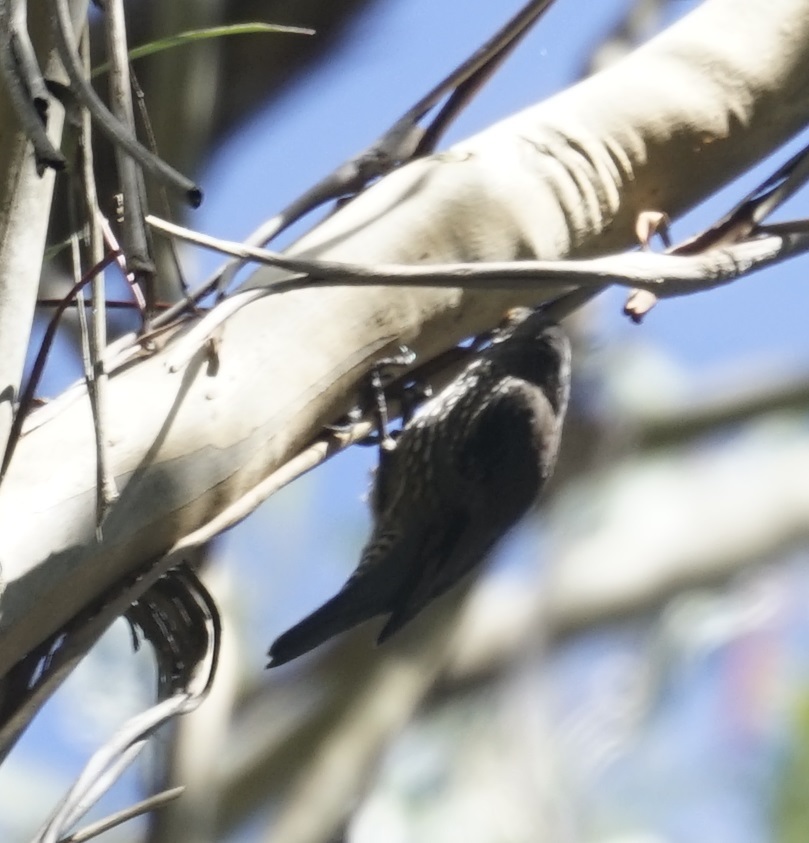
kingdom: Animalia
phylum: Chordata
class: Aves
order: Passeriformes
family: Climacteridae
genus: Cormobates
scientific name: Cormobates leucophaea
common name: White-throated treecreeper
